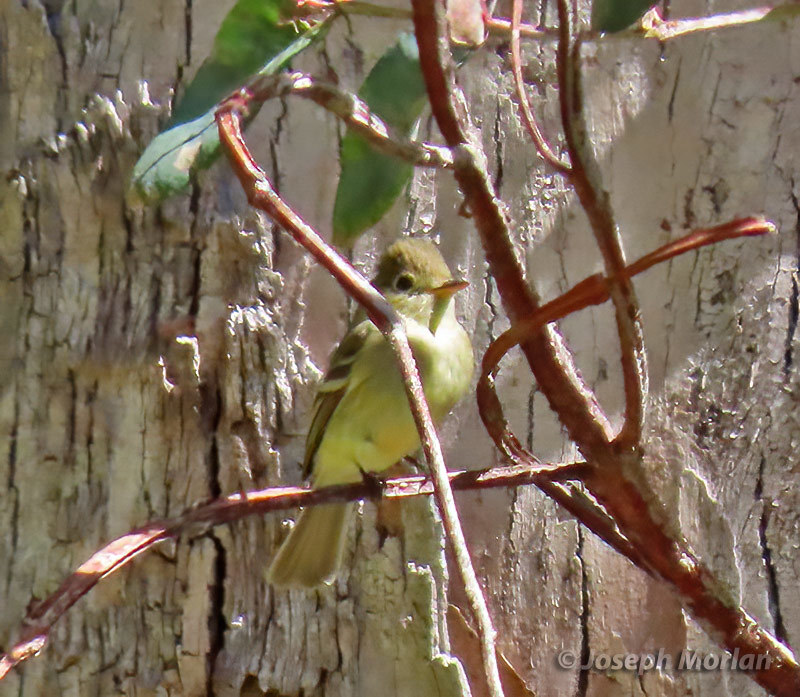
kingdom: Animalia
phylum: Chordata
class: Aves
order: Passeriformes
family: Tyrannidae
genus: Empidonax
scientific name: Empidonax difficilis
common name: Pacific-slope flycatcher
